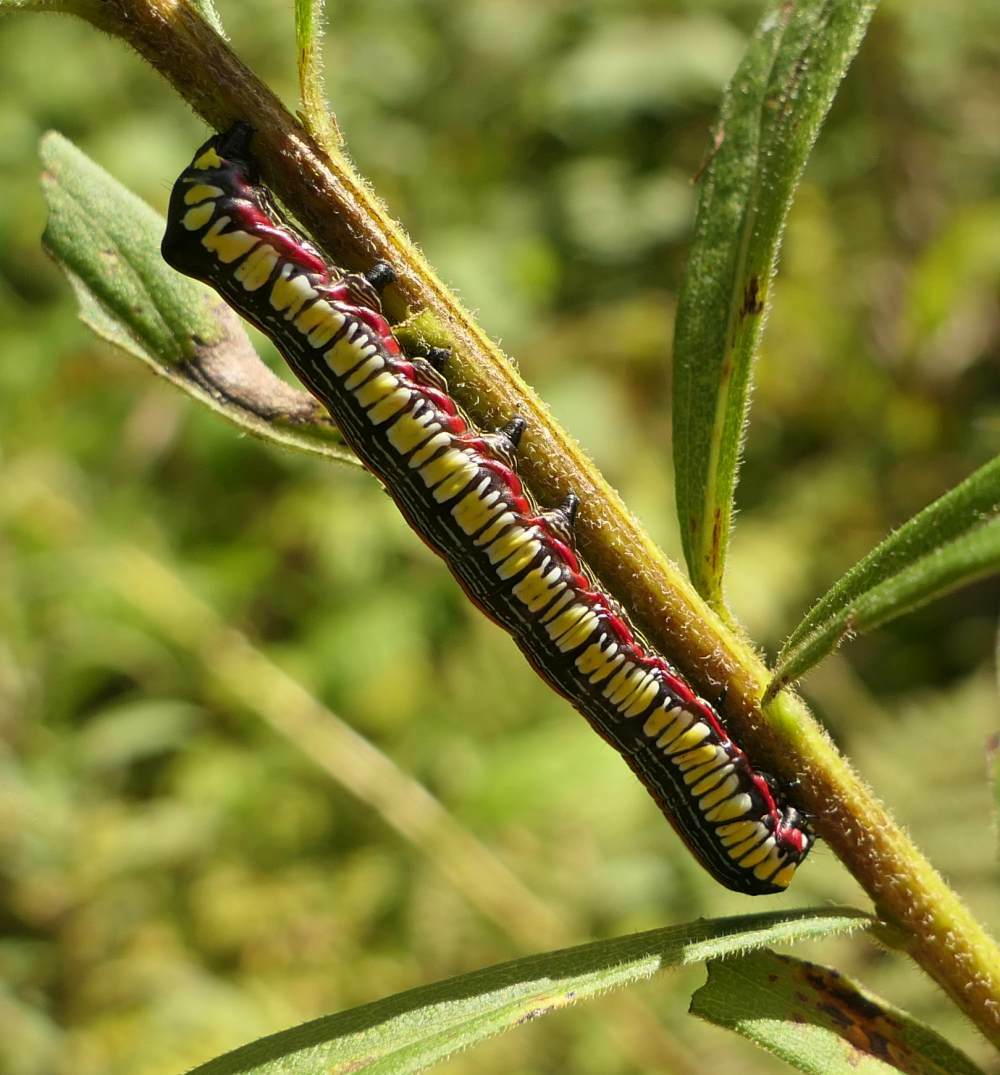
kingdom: Animalia
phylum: Arthropoda
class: Insecta
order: Lepidoptera
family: Noctuidae
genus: Cucullia
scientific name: Cucullia convexipennis
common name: Brown-hooded owlet
